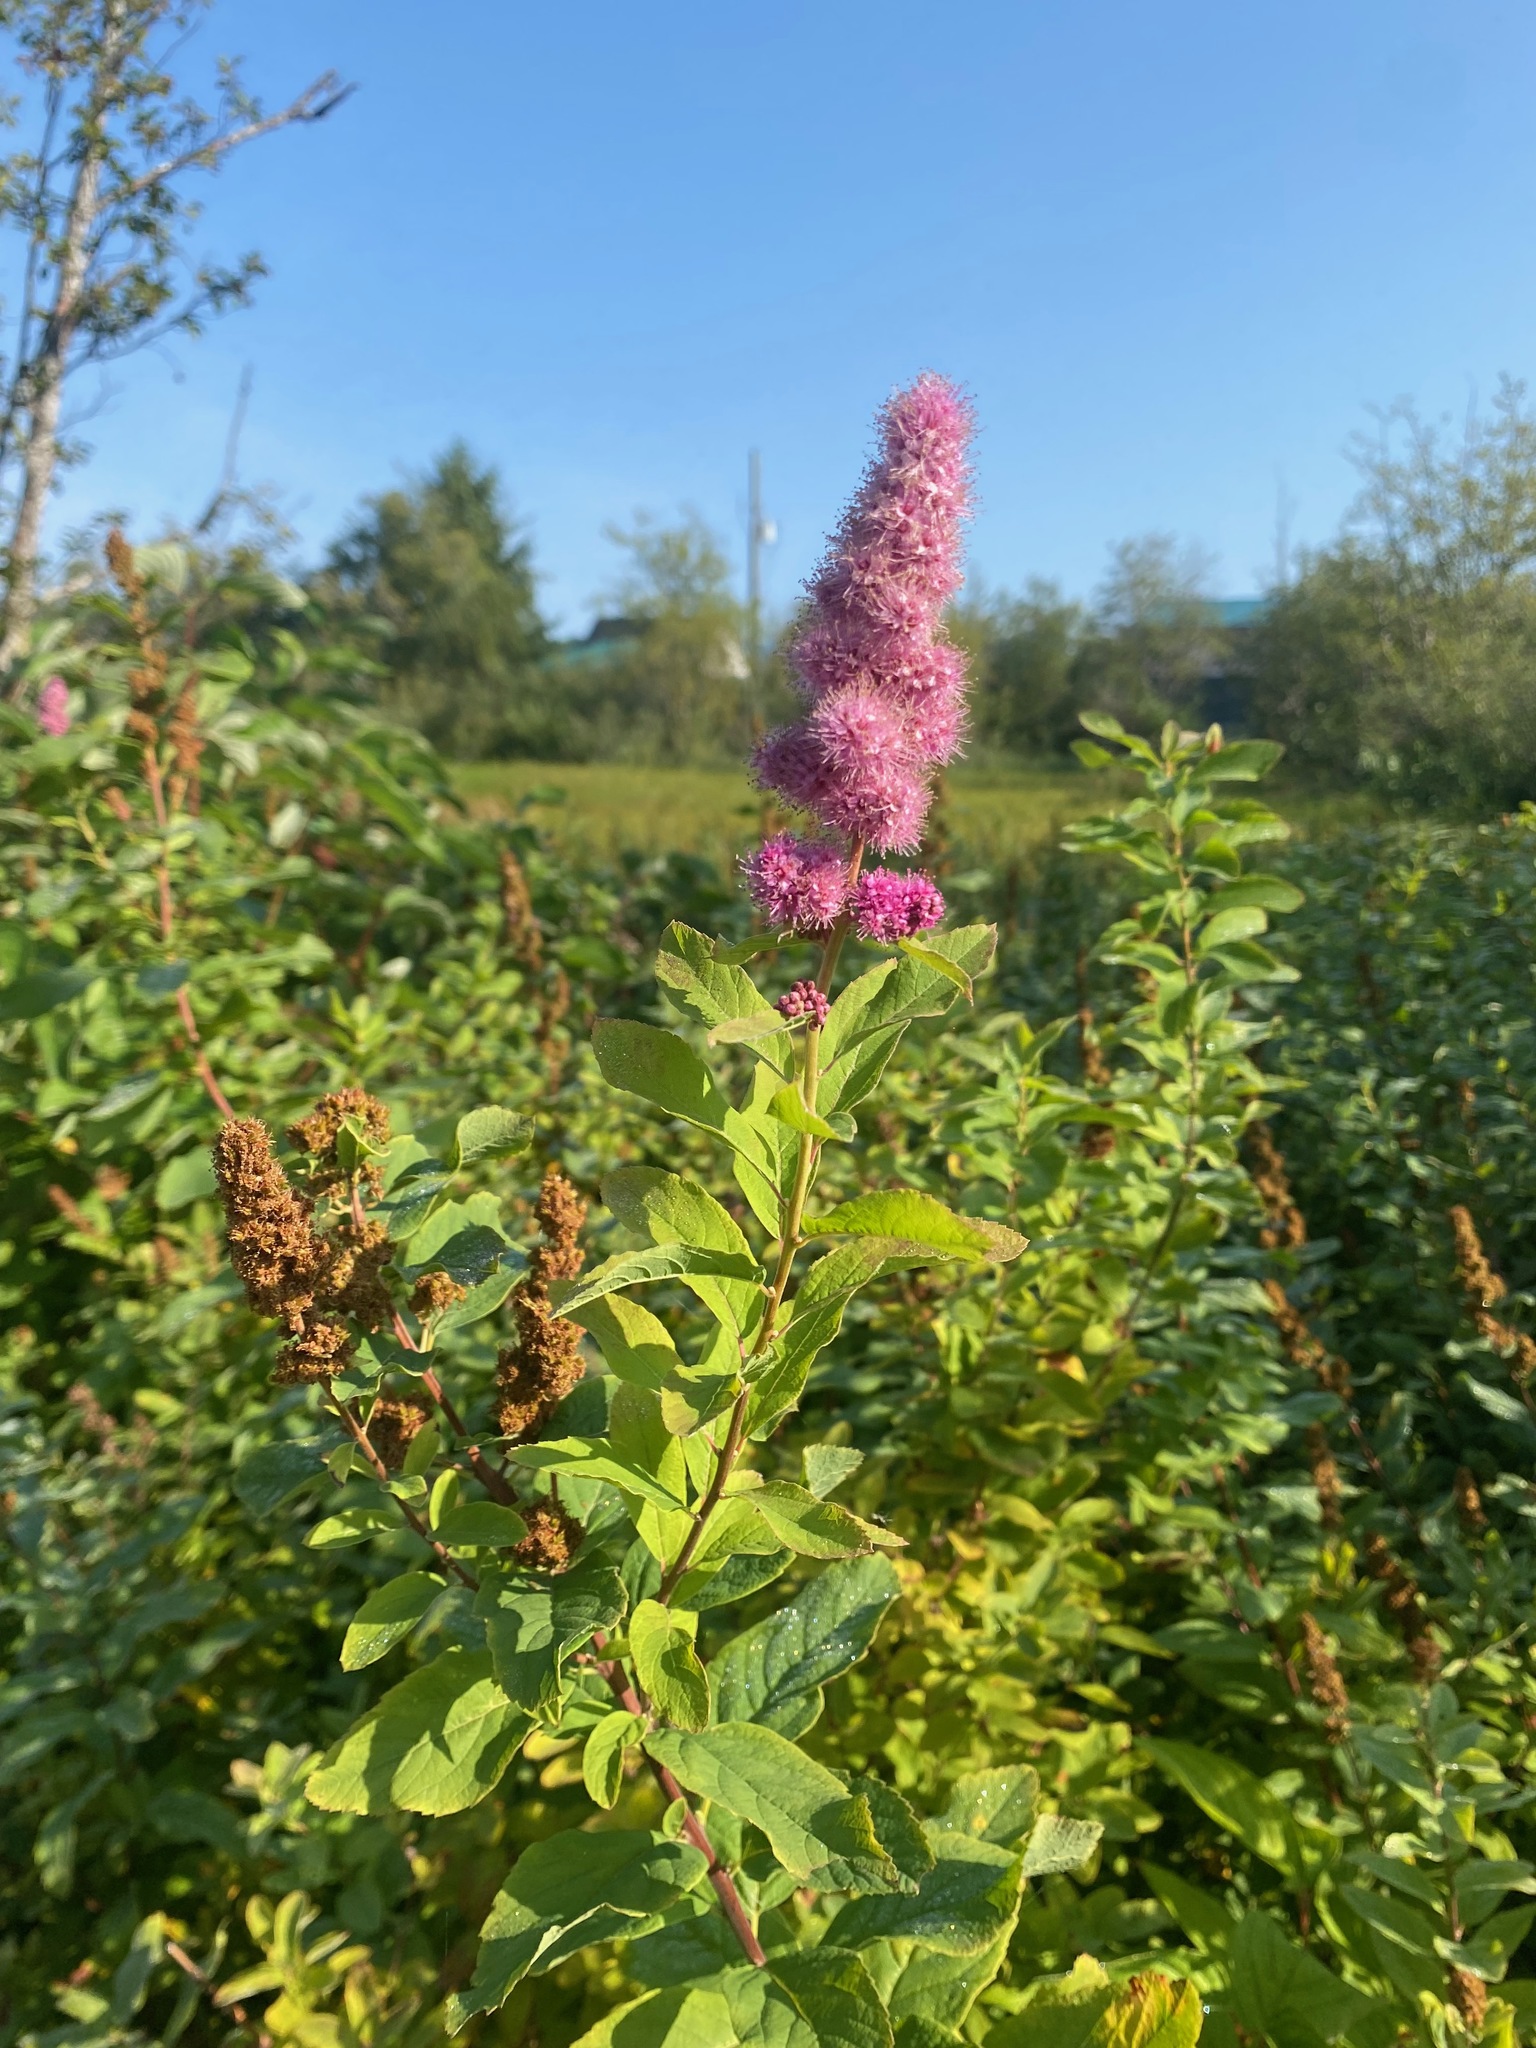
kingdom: Plantae
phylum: Tracheophyta
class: Magnoliopsida
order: Rosales
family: Rosaceae
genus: Spiraea
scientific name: Spiraea douglasii
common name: Steeplebush
